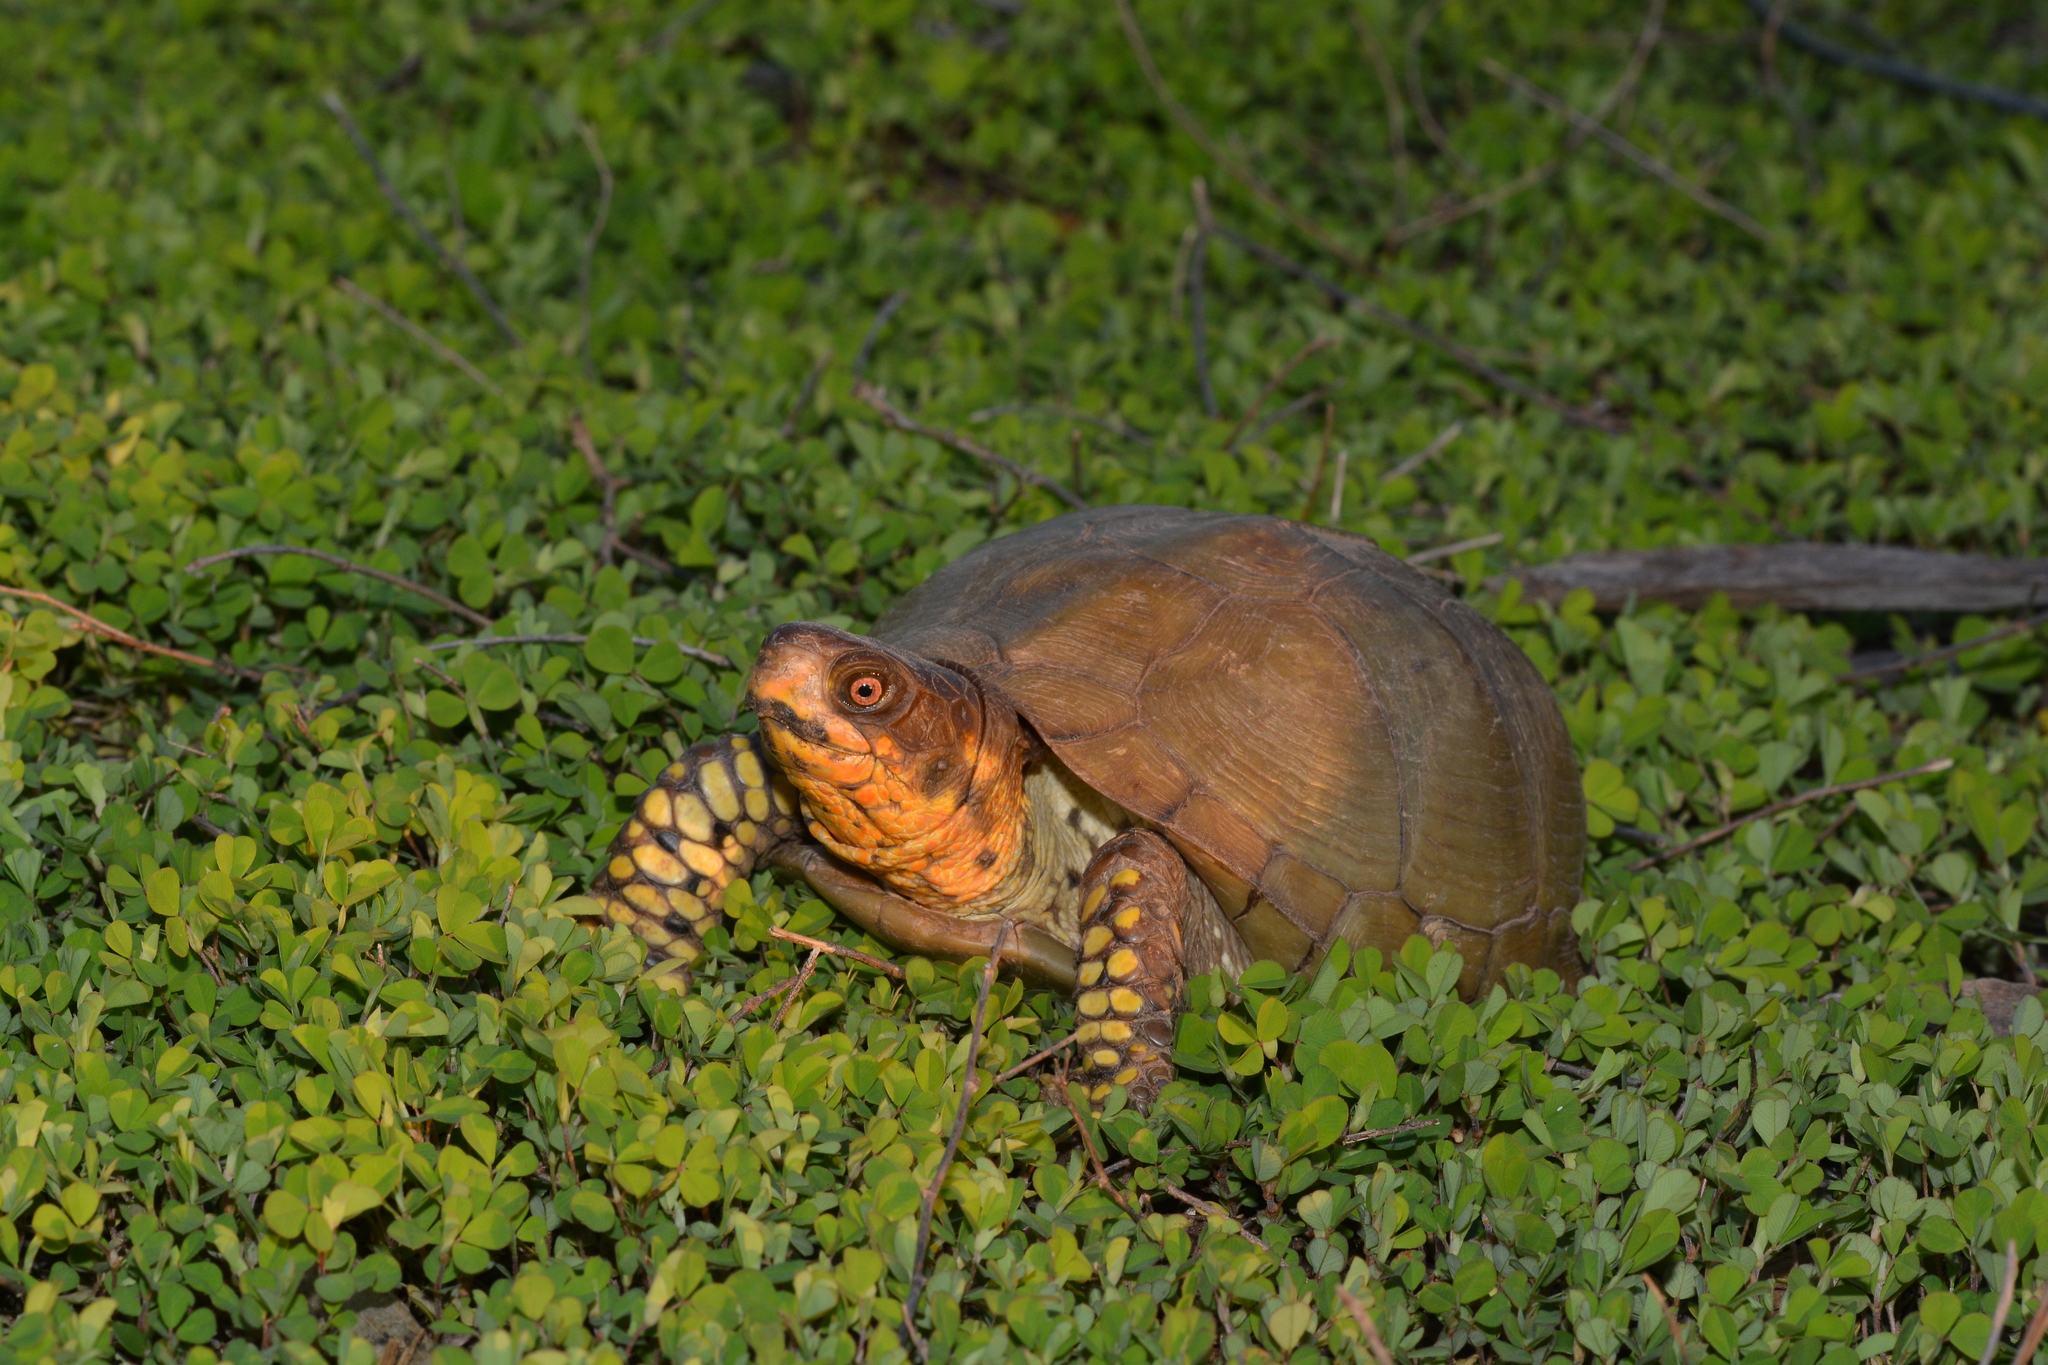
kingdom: Animalia
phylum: Chordata
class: Testudines
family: Emydidae
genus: Terrapene
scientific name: Terrapene carolina
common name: Common box turtle
